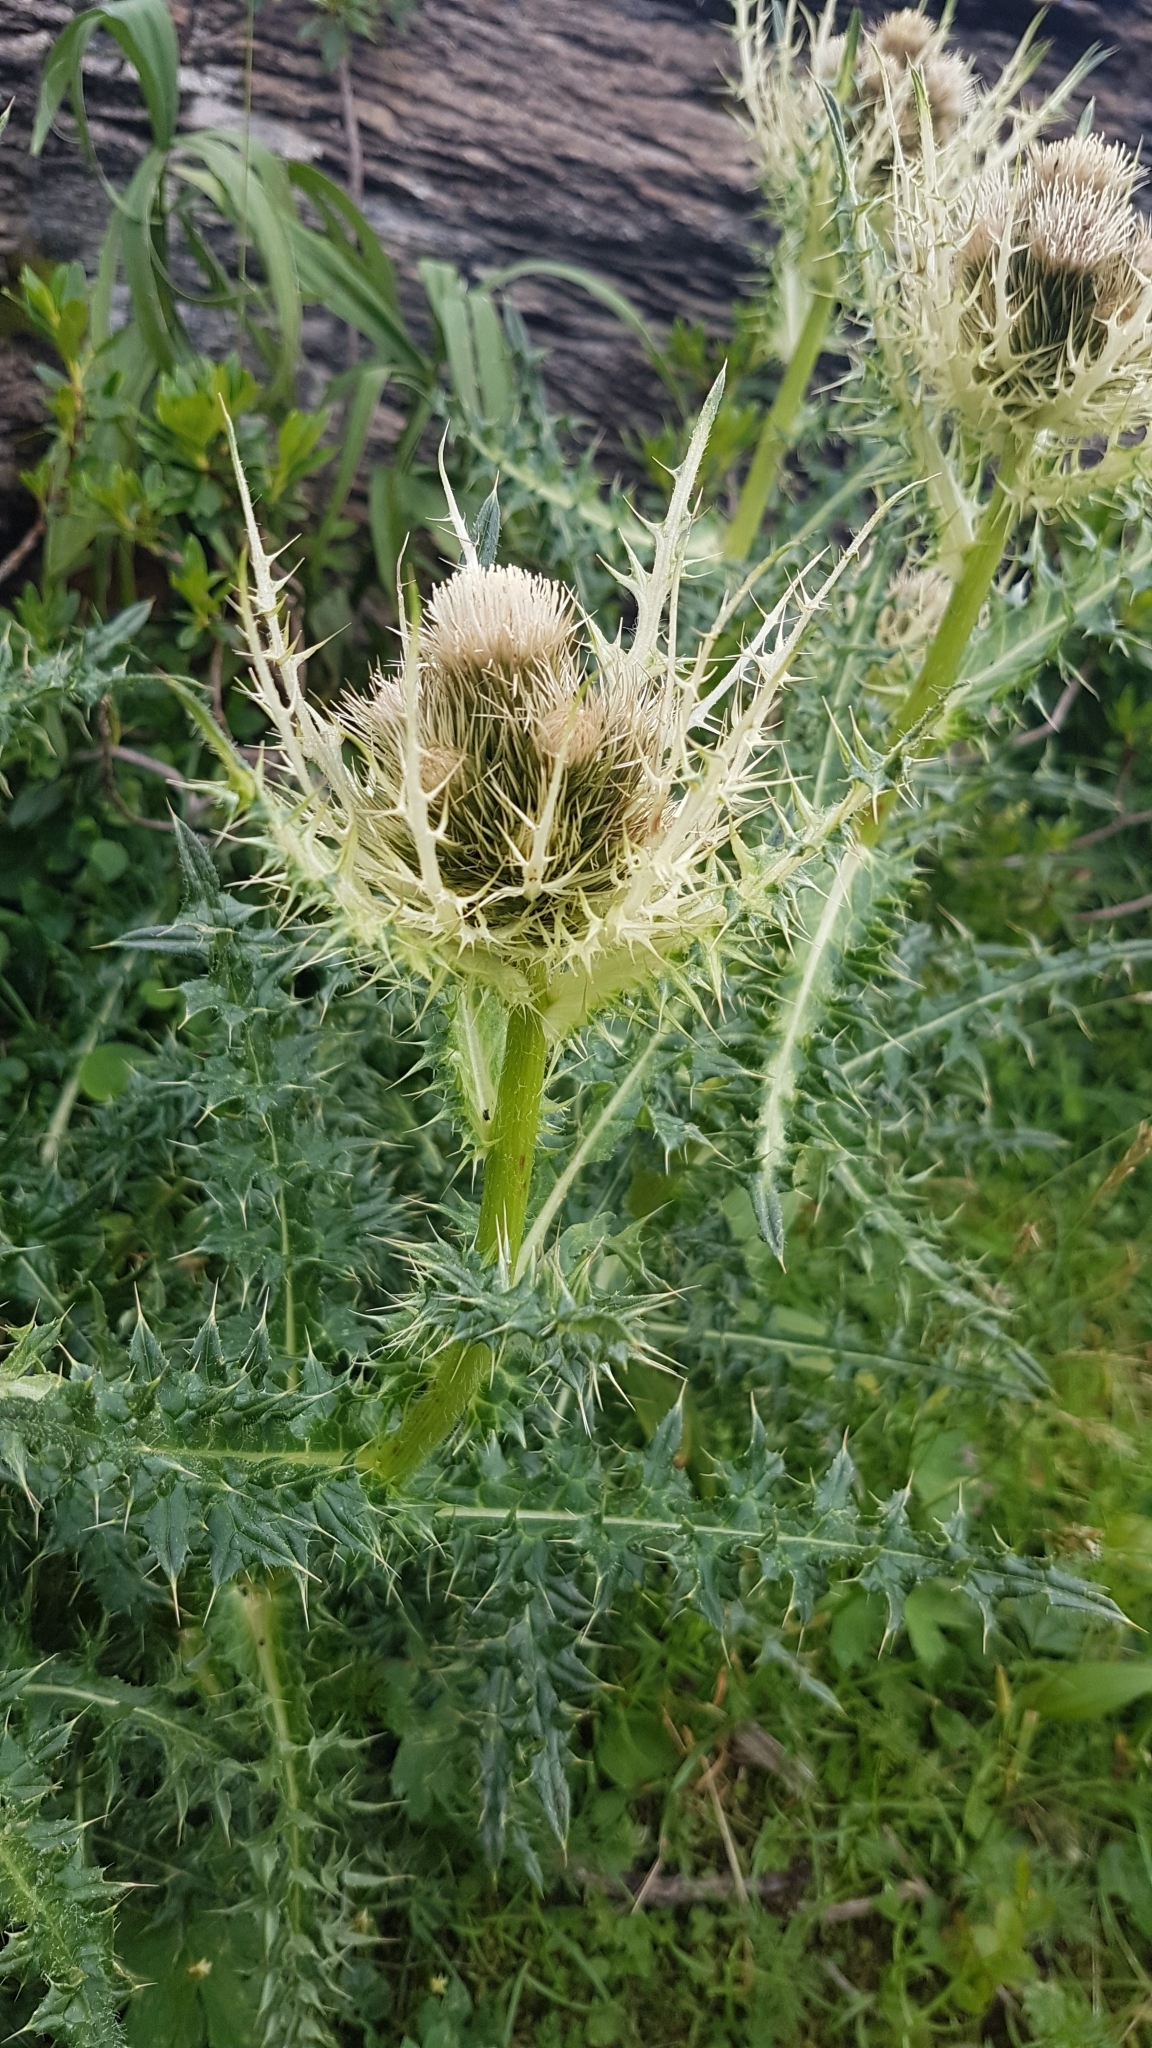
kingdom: Plantae
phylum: Tracheophyta
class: Magnoliopsida
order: Asterales
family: Asteraceae
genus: Cirsium
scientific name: Cirsium spinosissimum
